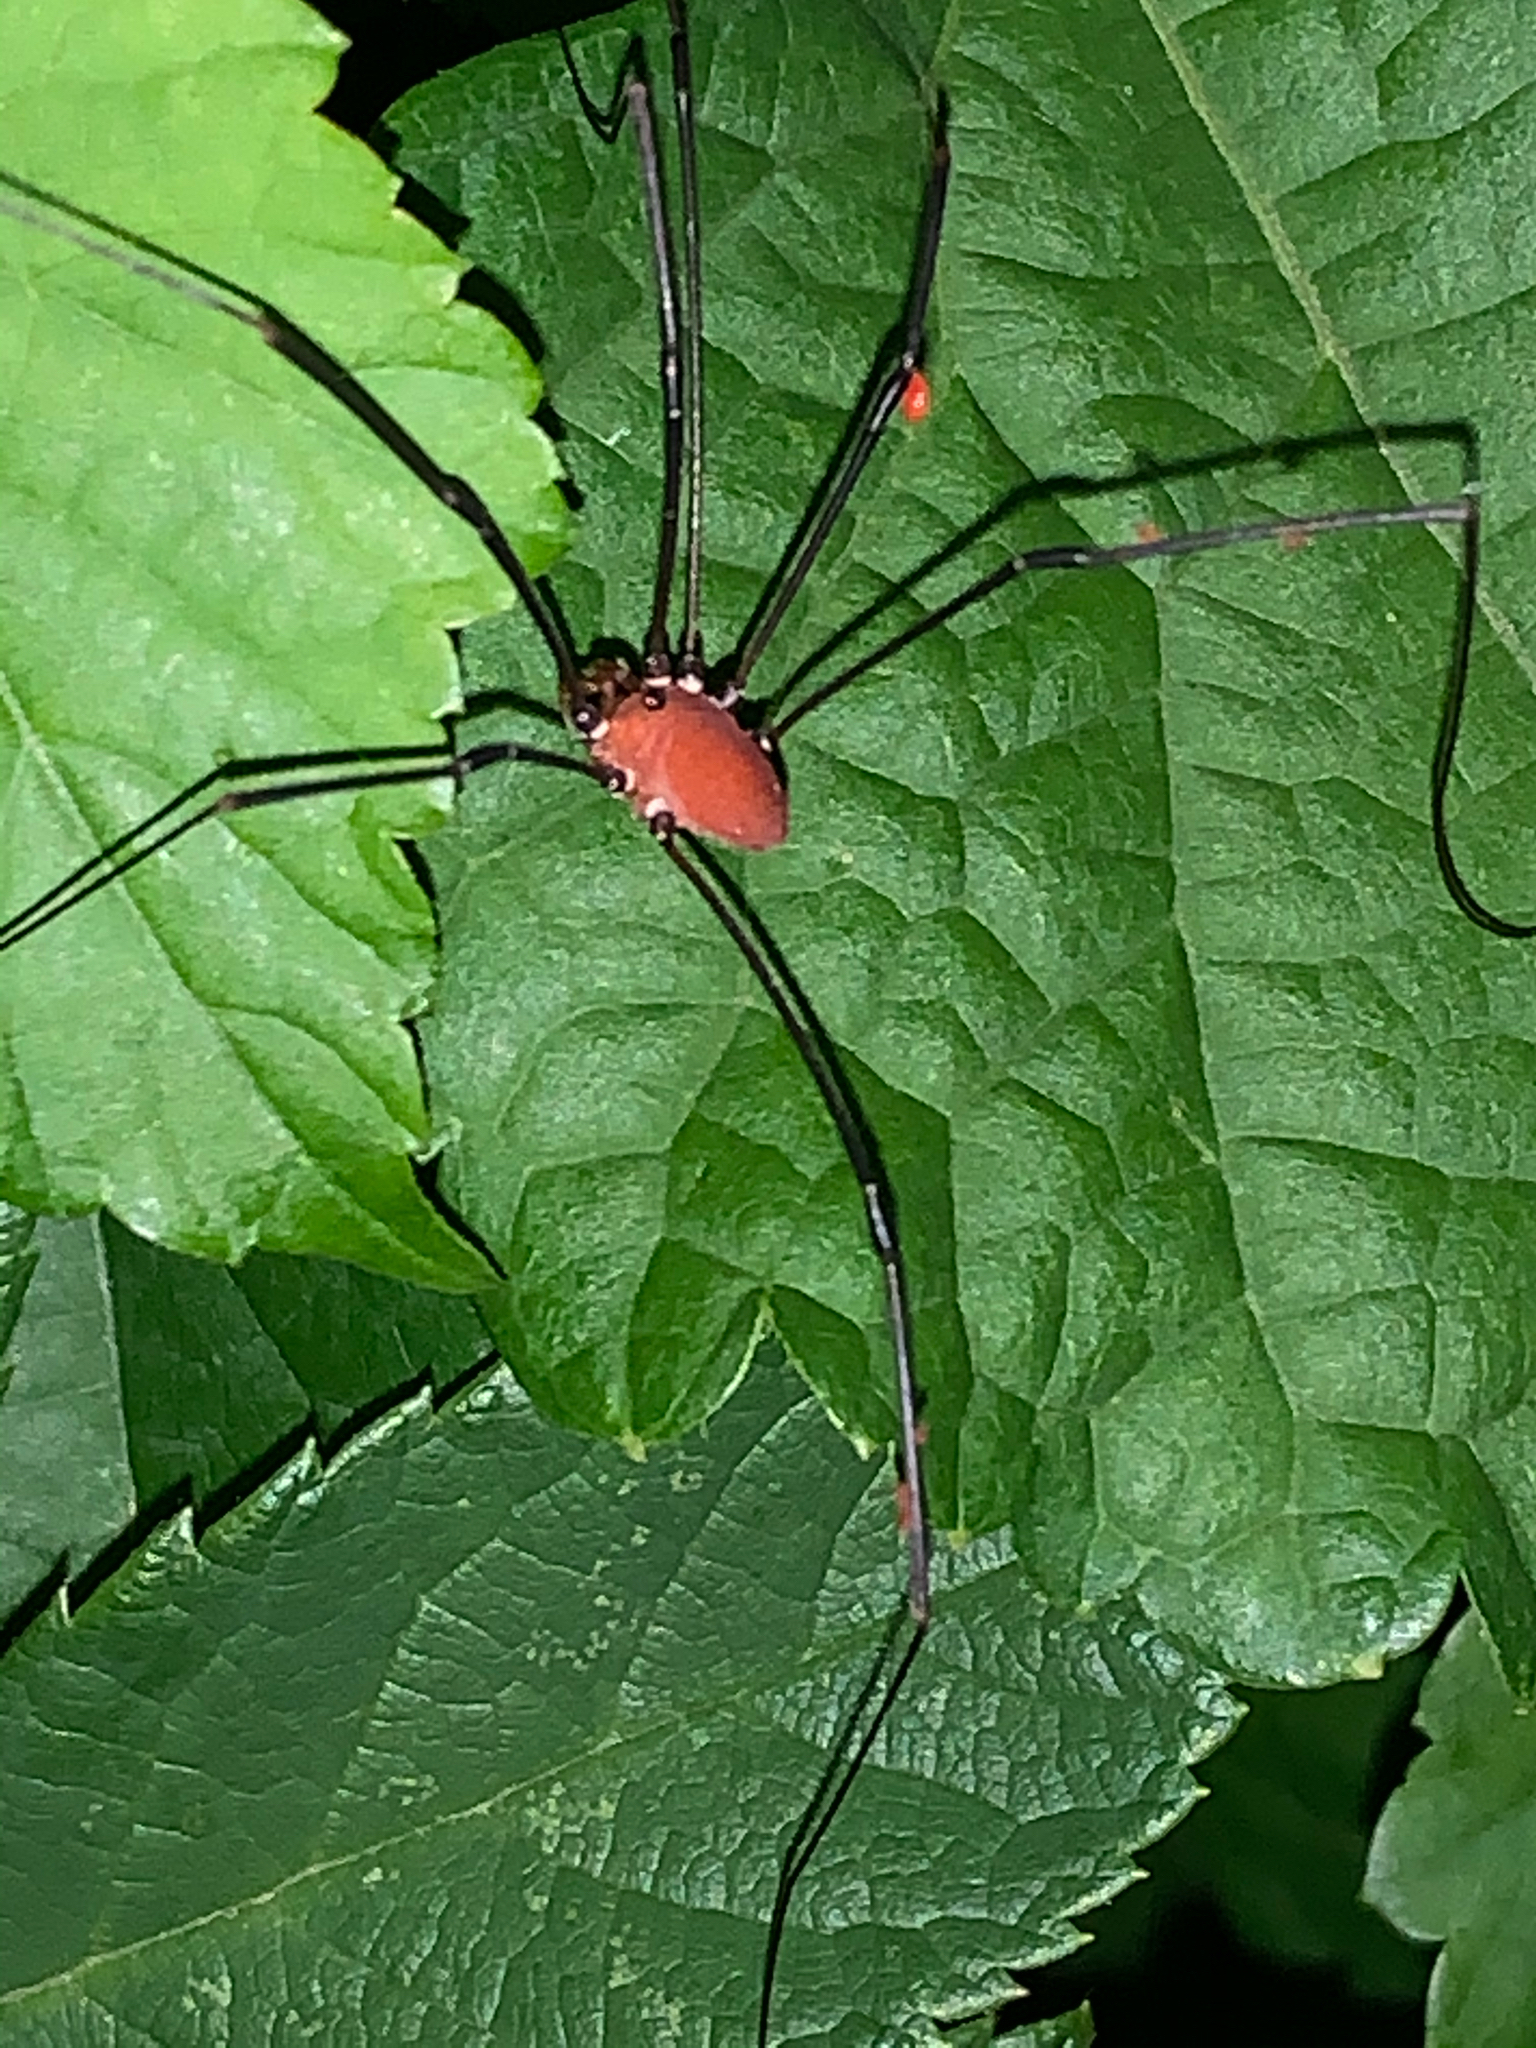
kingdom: Animalia
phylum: Arthropoda
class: Arachnida
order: Opiliones
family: Sclerosomatidae
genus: Leiobunum
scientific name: Leiobunum euserratipalpe
